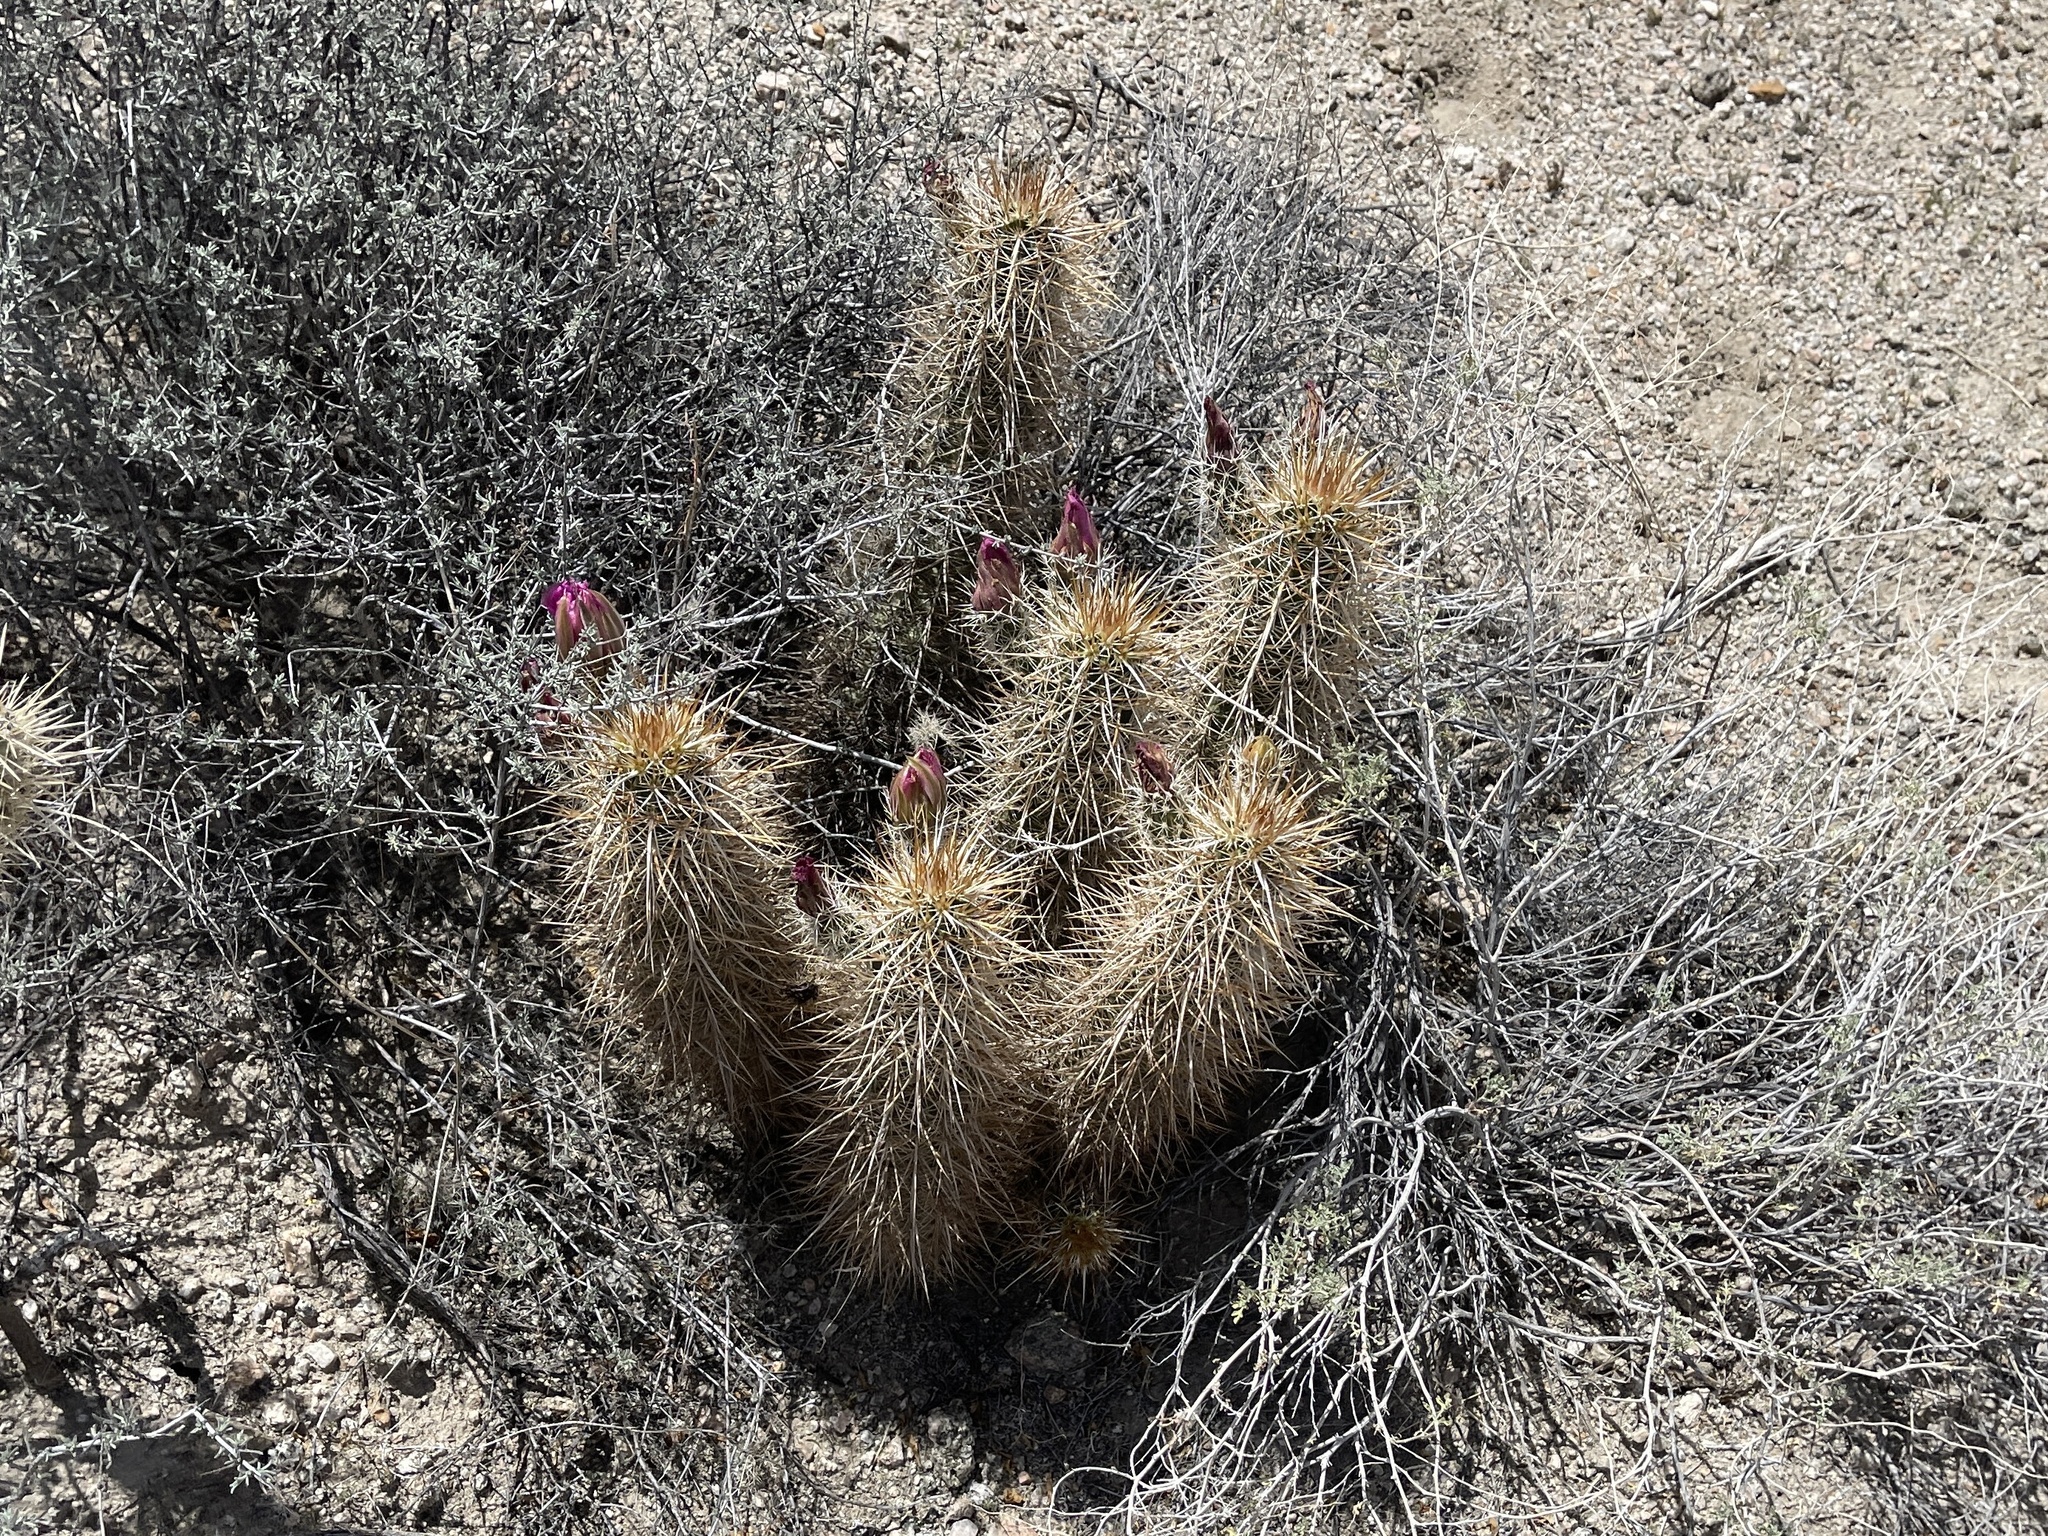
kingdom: Plantae
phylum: Tracheophyta
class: Magnoliopsida
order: Caryophyllales
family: Cactaceae
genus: Echinocereus
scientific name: Echinocereus engelmannii
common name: Engelmann's hedgehog cactus
